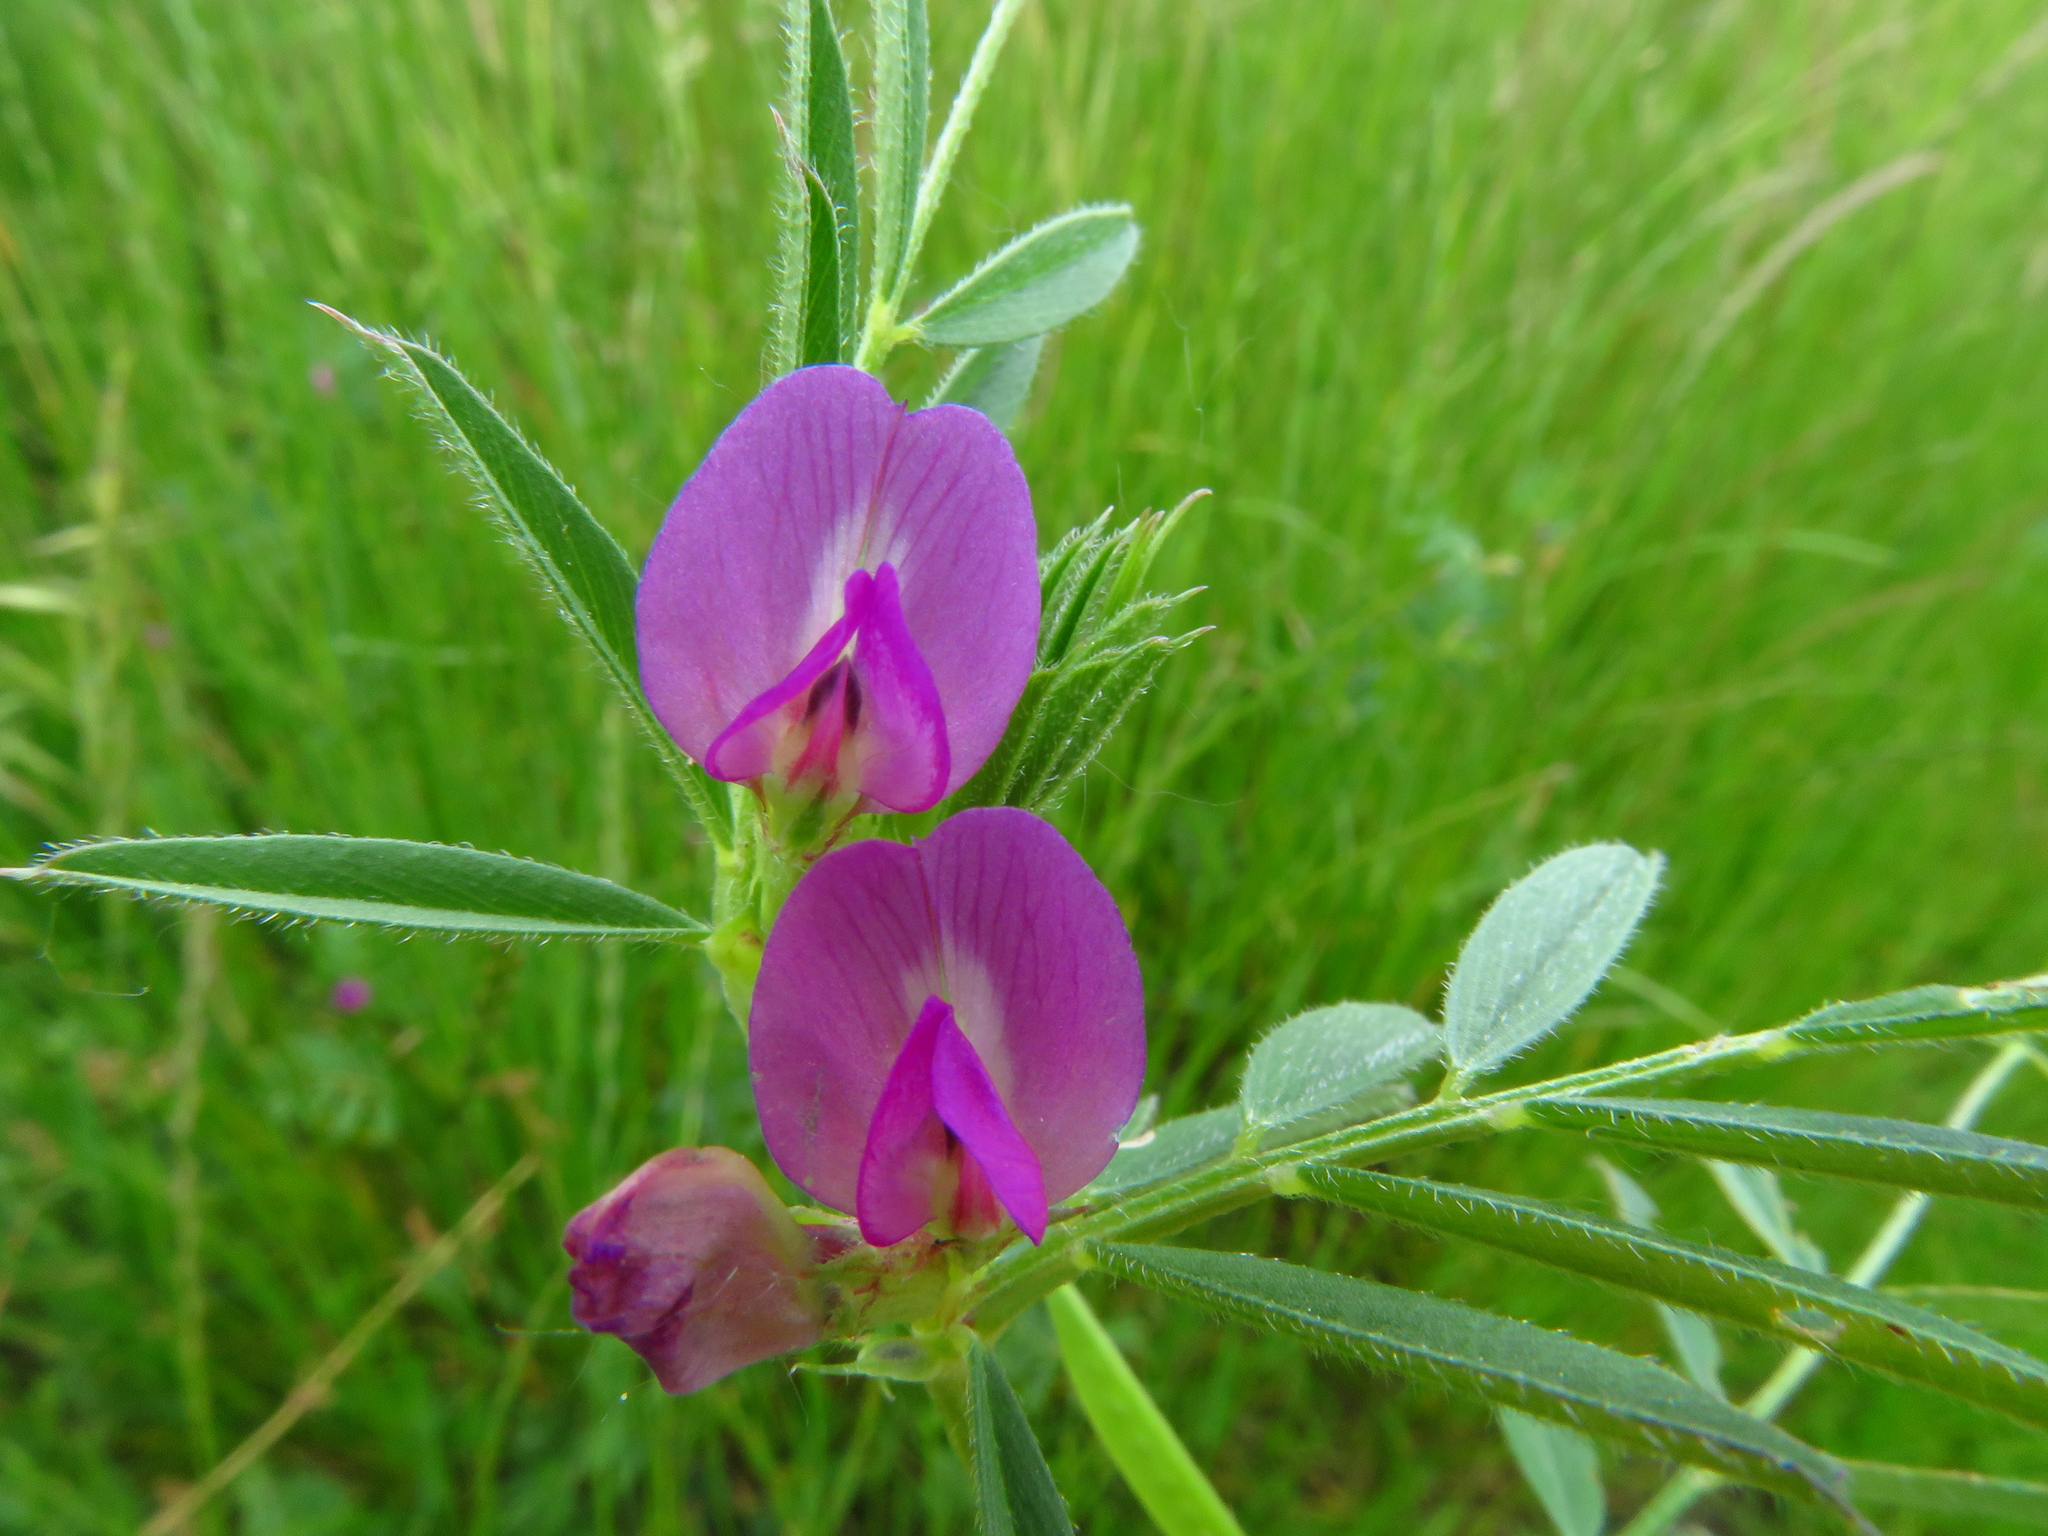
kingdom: Plantae
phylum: Tracheophyta
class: Magnoliopsida
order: Fabales
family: Fabaceae
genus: Vicia
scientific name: Vicia sativa
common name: Garden vetch
